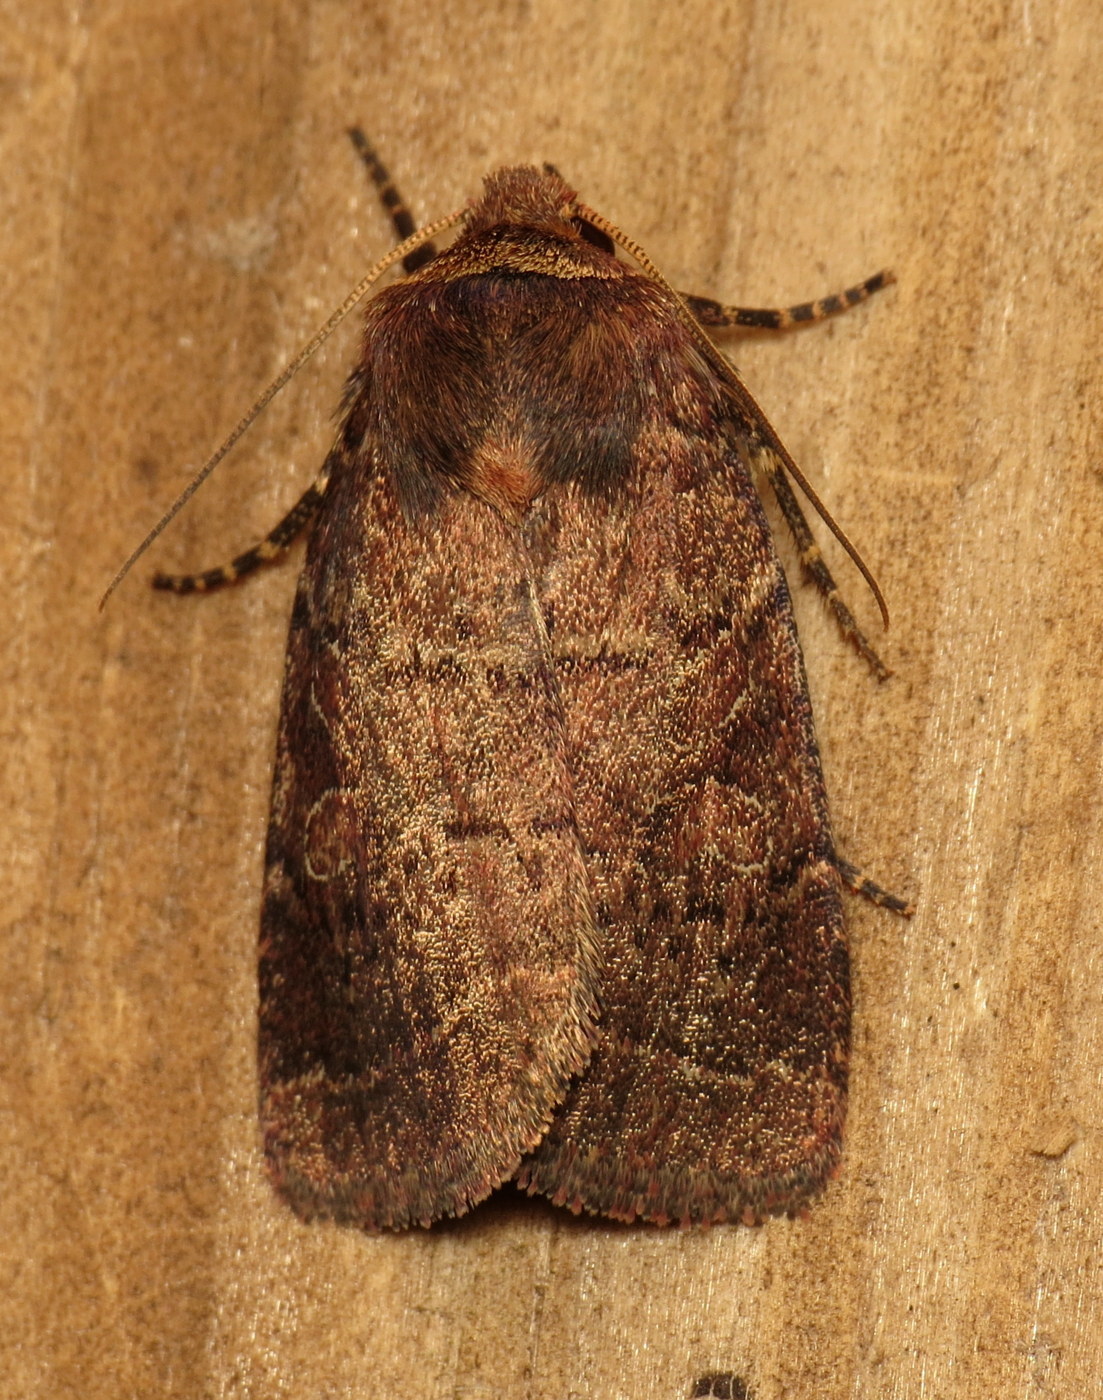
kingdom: Animalia
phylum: Arthropoda
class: Insecta
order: Lepidoptera
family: Noctuidae
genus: Orthodes
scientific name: Orthodes cynica
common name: Cynical quaker
